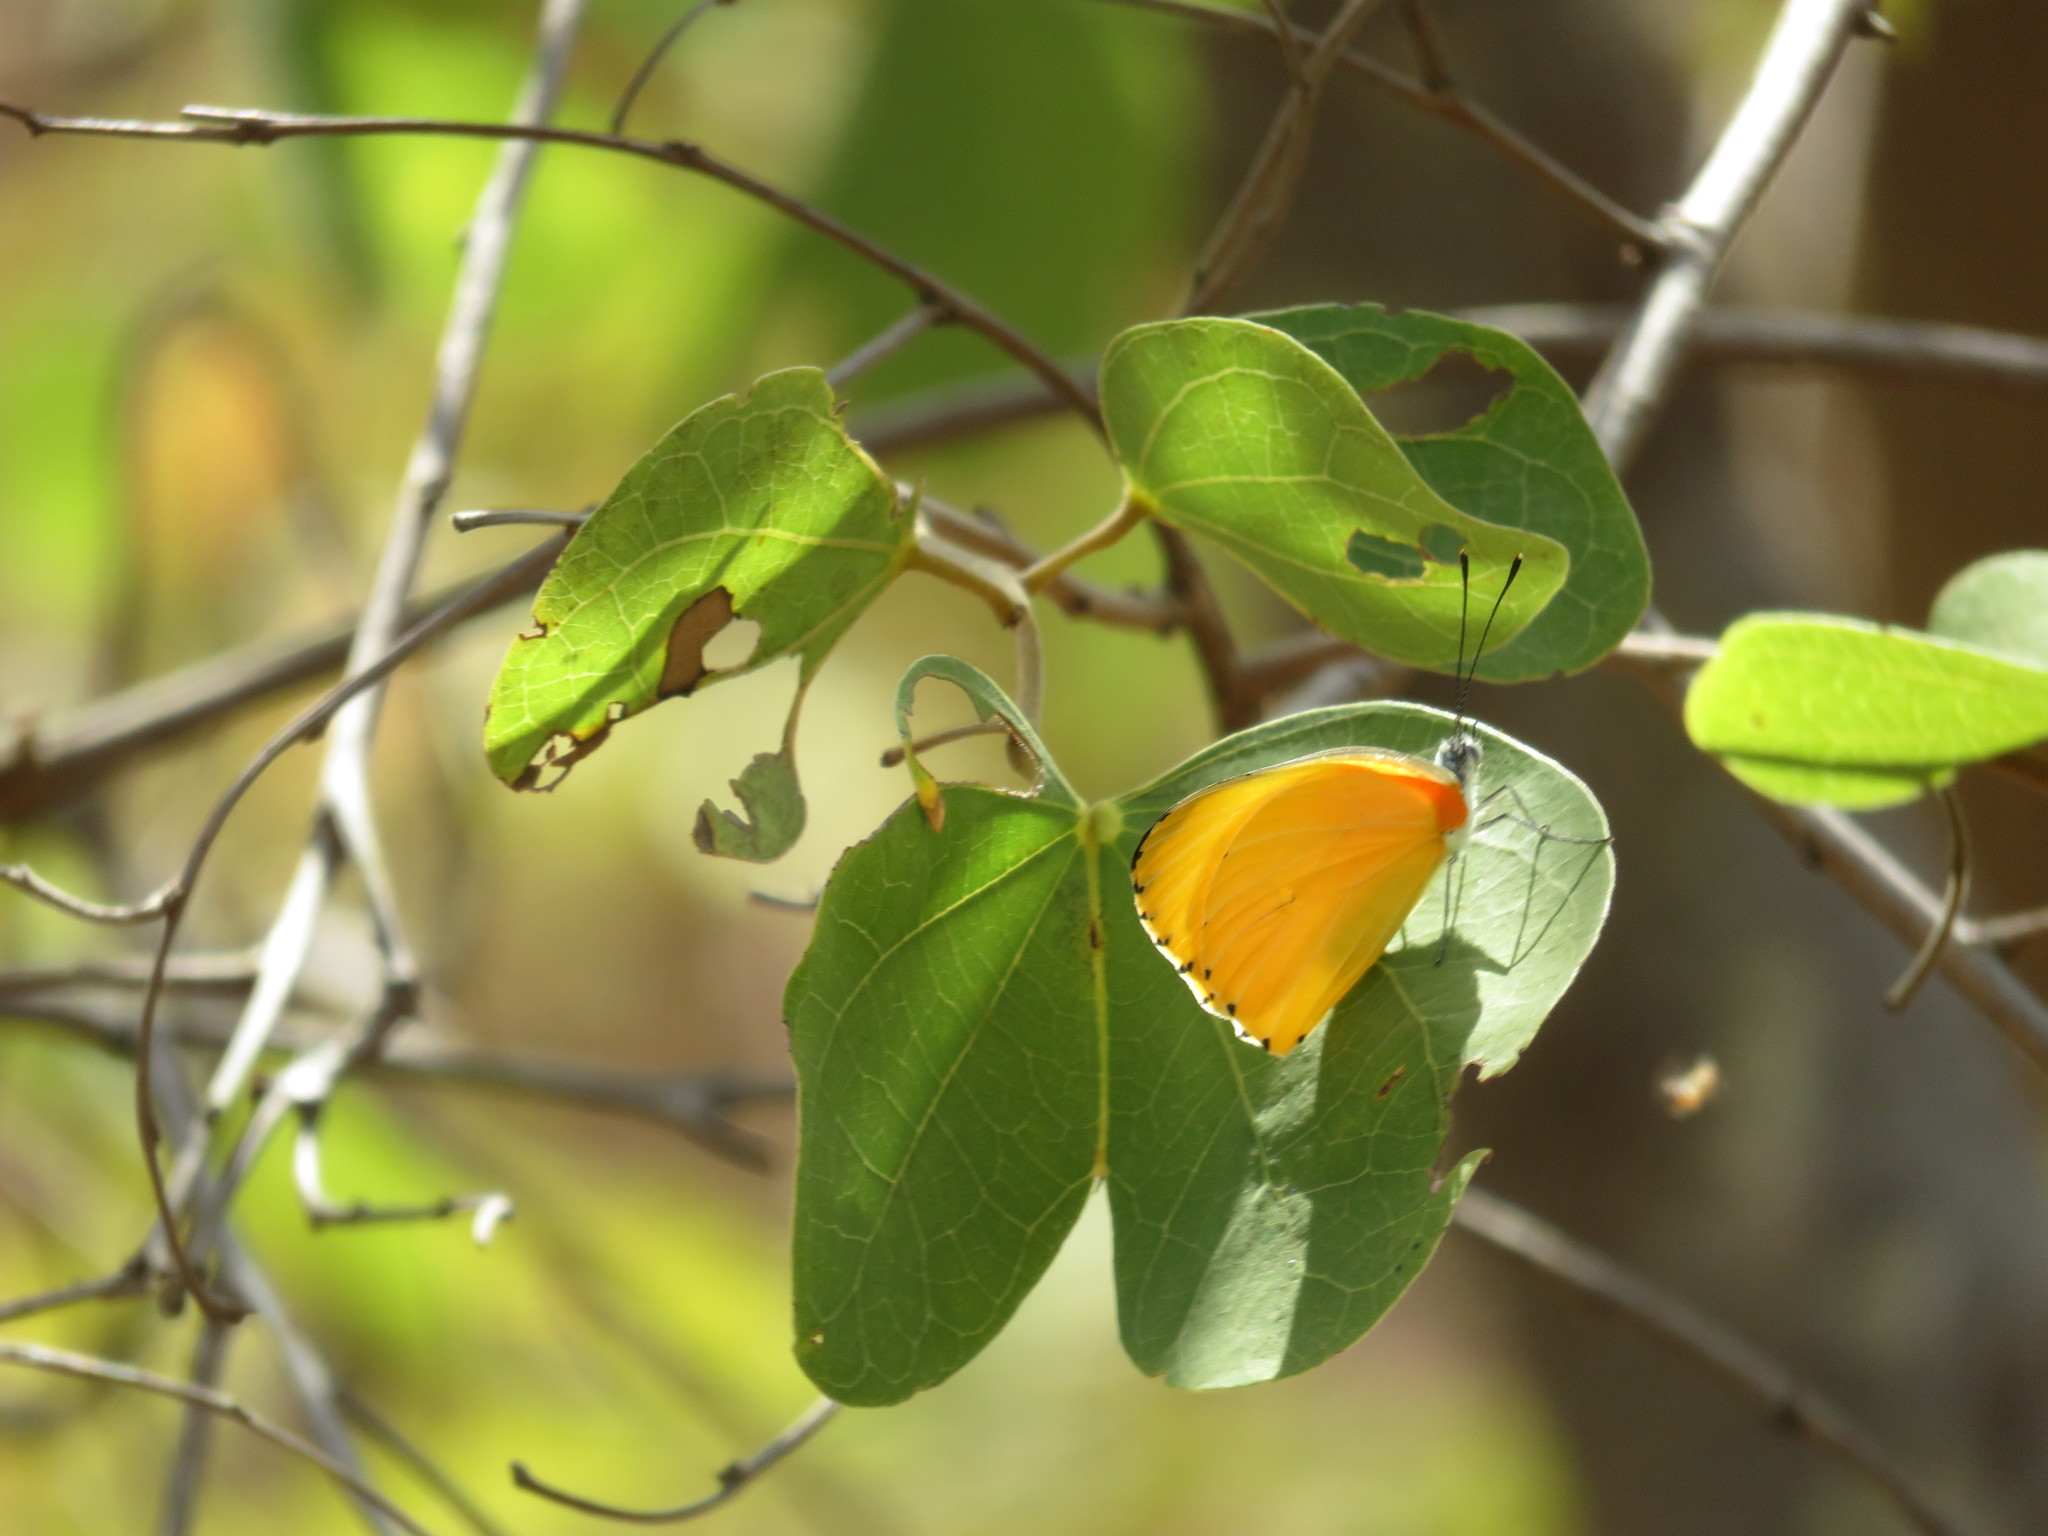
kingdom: Animalia
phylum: Arthropoda
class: Insecta
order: Lepidoptera
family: Pieridae
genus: Mylothris
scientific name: Mylothris agathina
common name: Eastern dotted border
